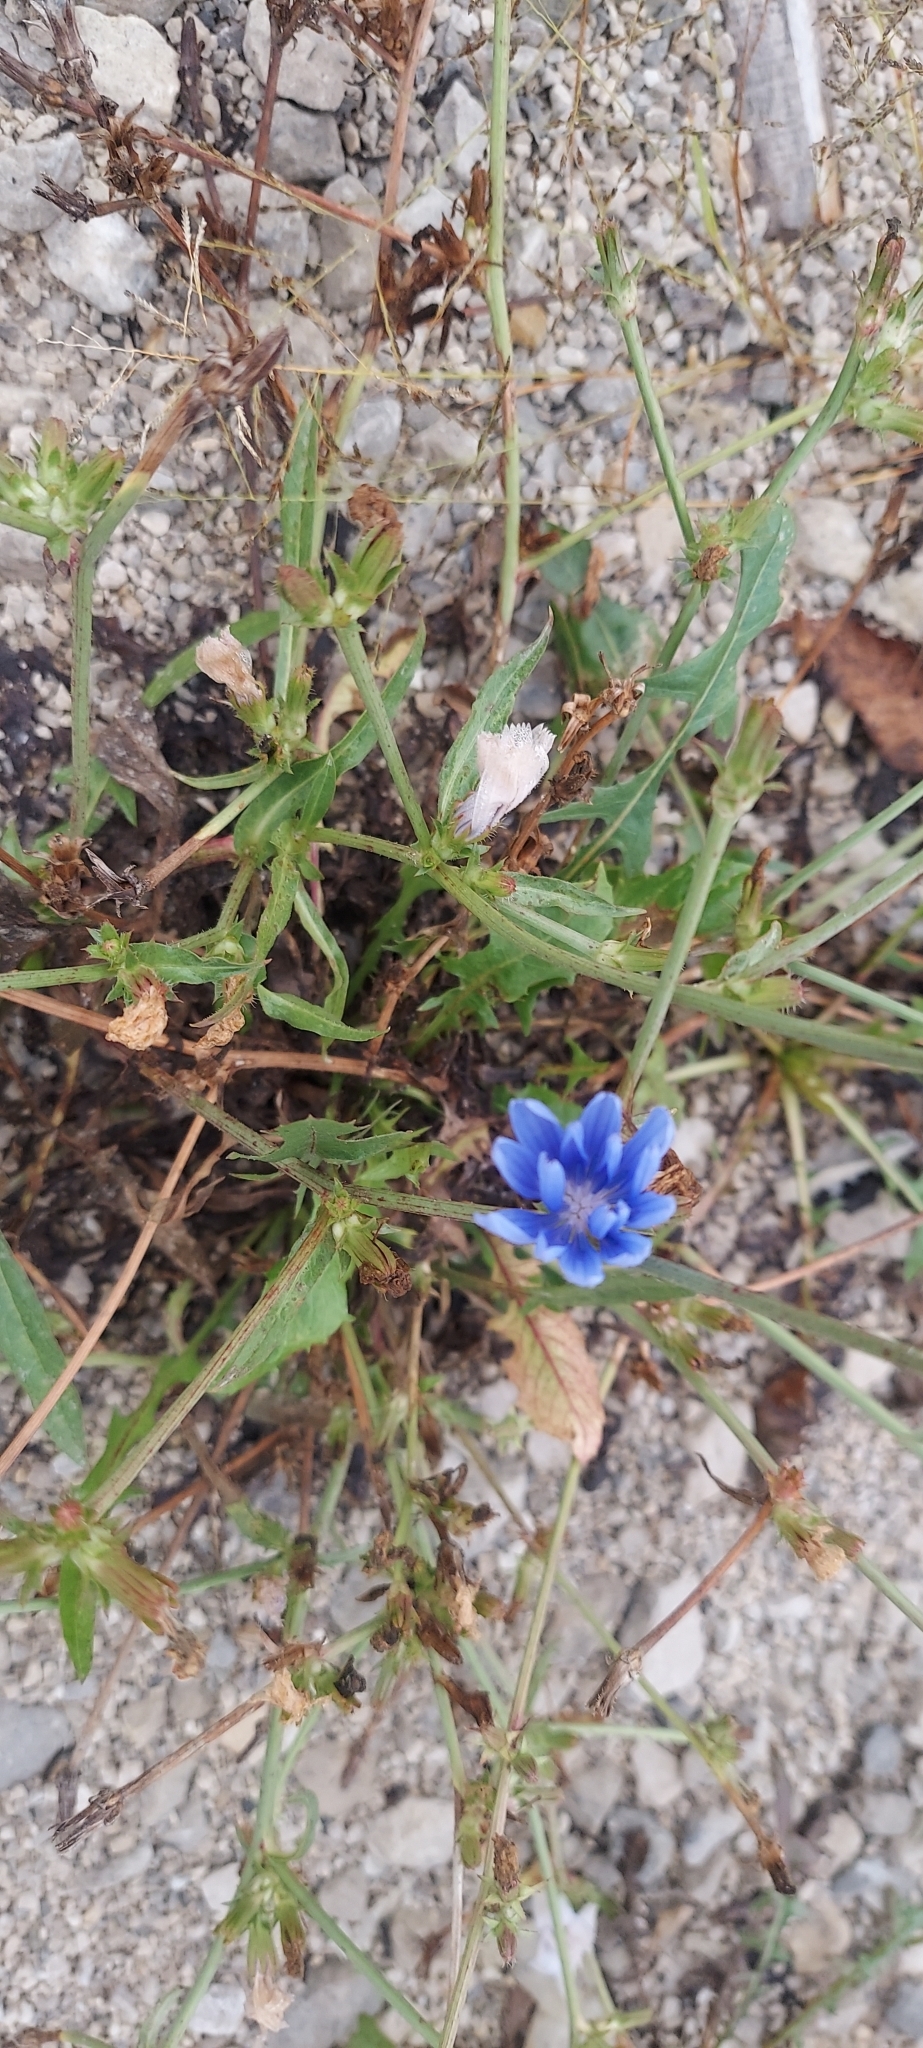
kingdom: Plantae
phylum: Tracheophyta
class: Magnoliopsida
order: Asterales
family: Asteraceae
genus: Cichorium
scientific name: Cichorium intybus
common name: Chicory
